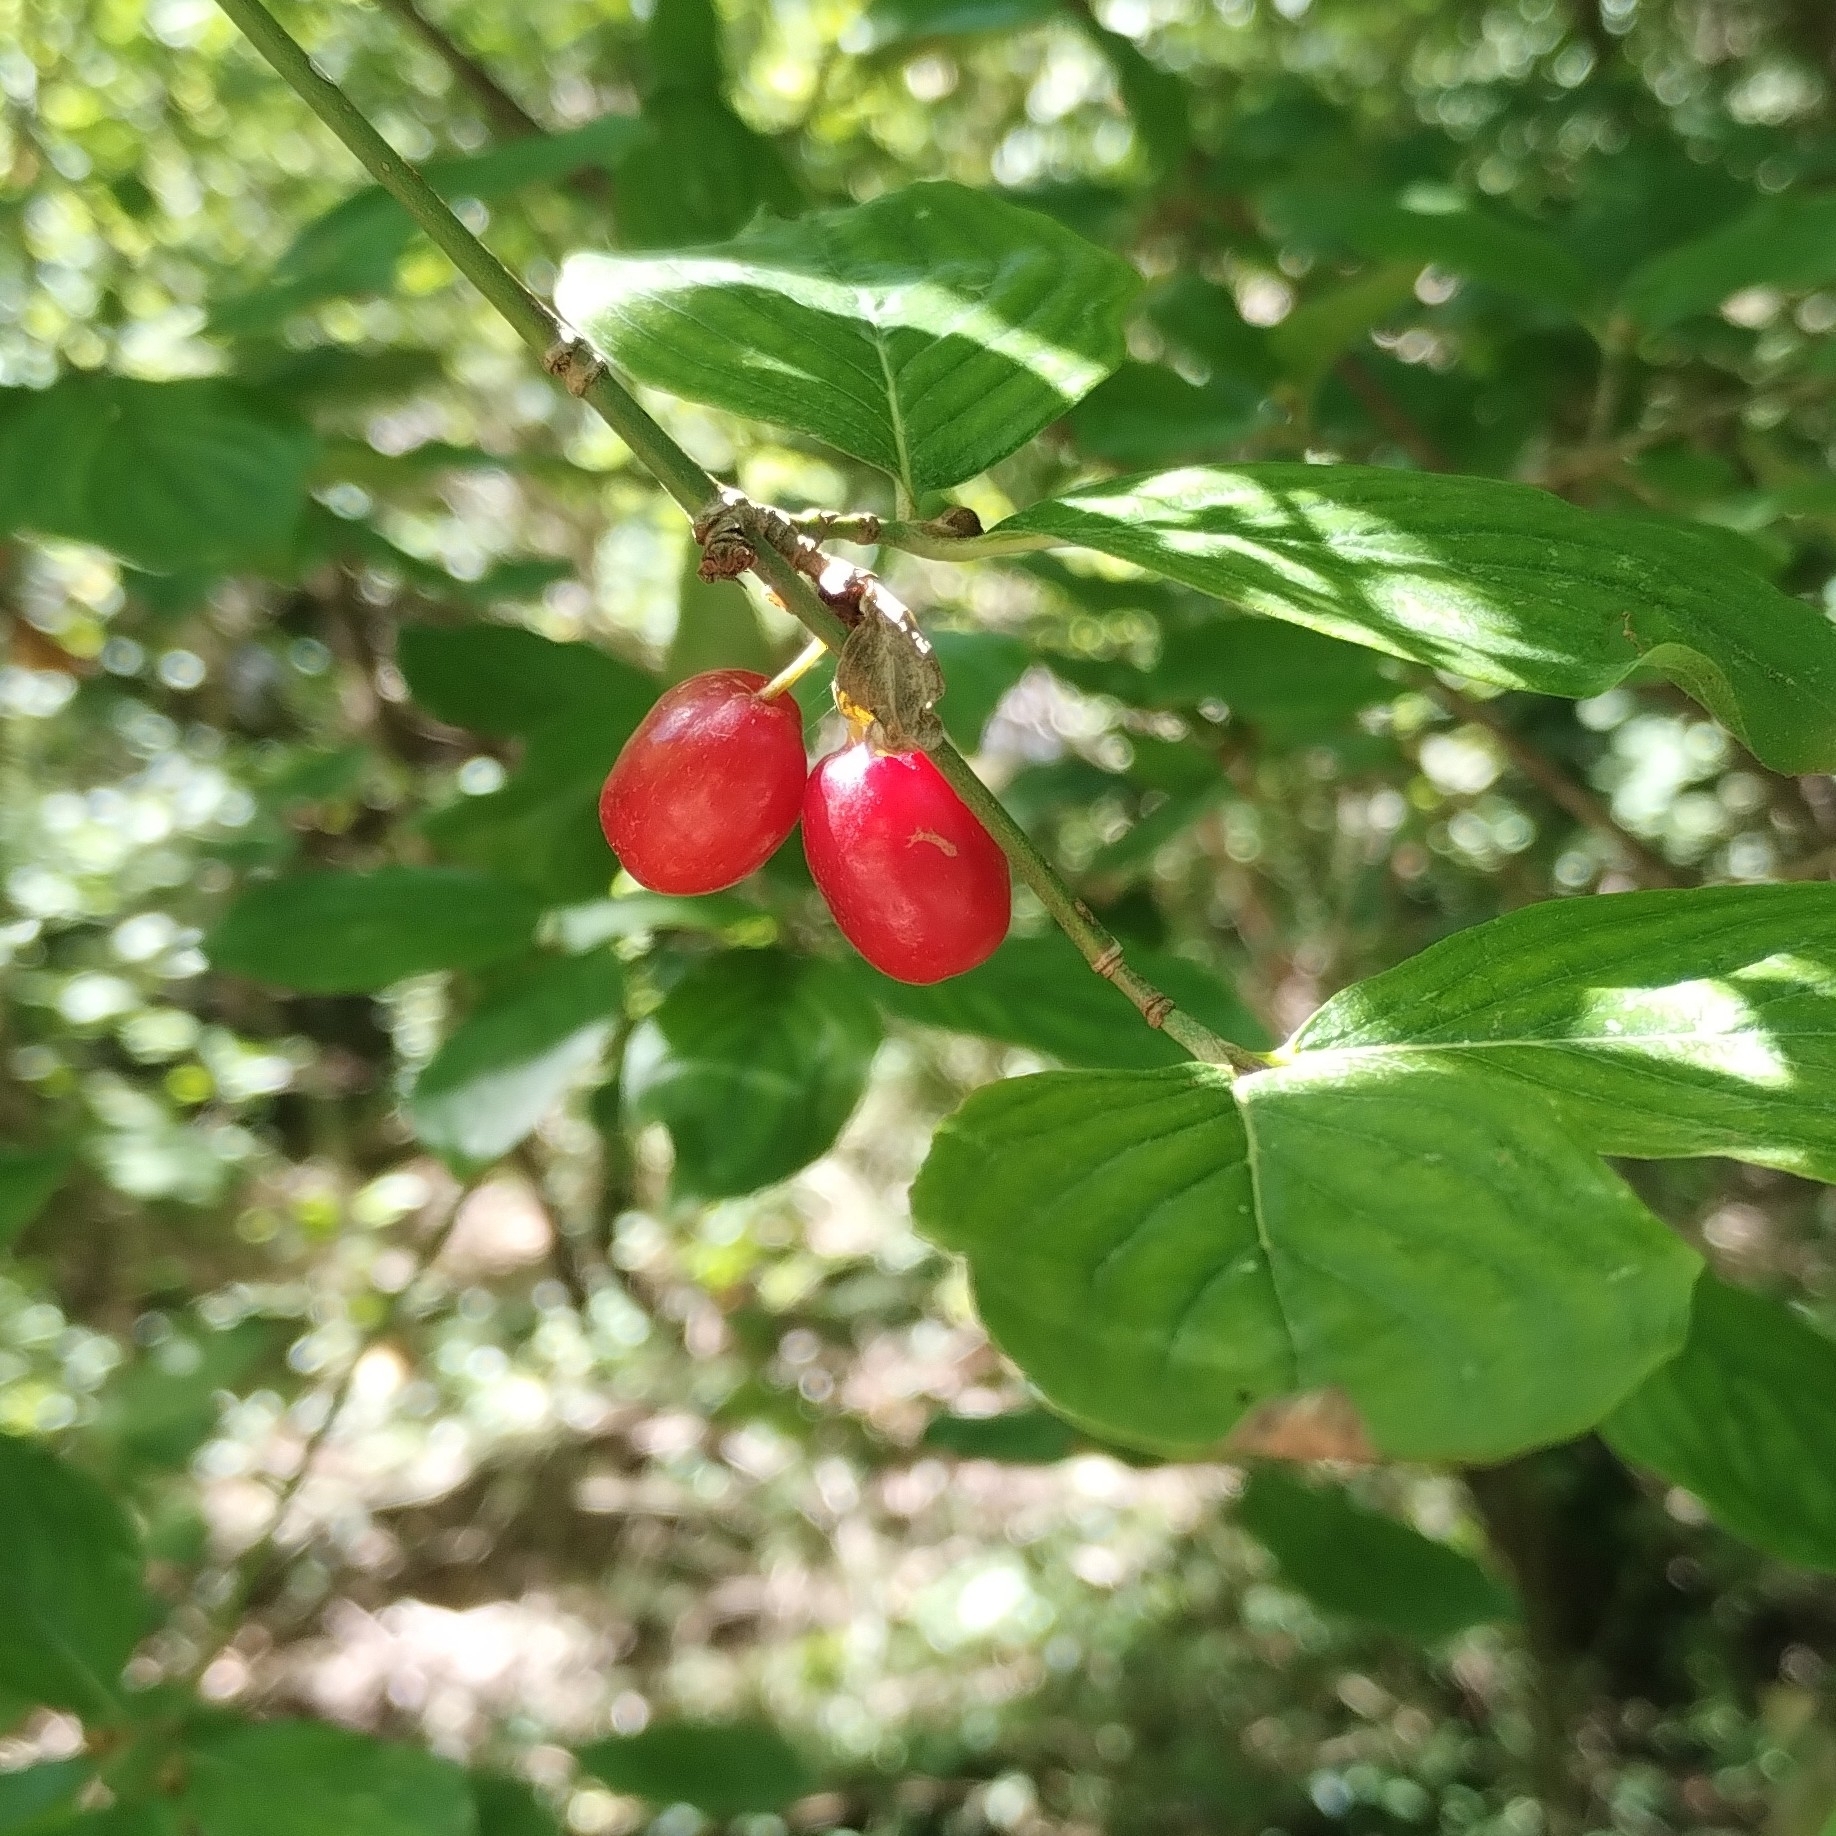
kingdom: Plantae
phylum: Tracheophyta
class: Magnoliopsida
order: Cornales
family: Cornaceae
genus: Cornus
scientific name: Cornus mas
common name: Cornelian-cherry
